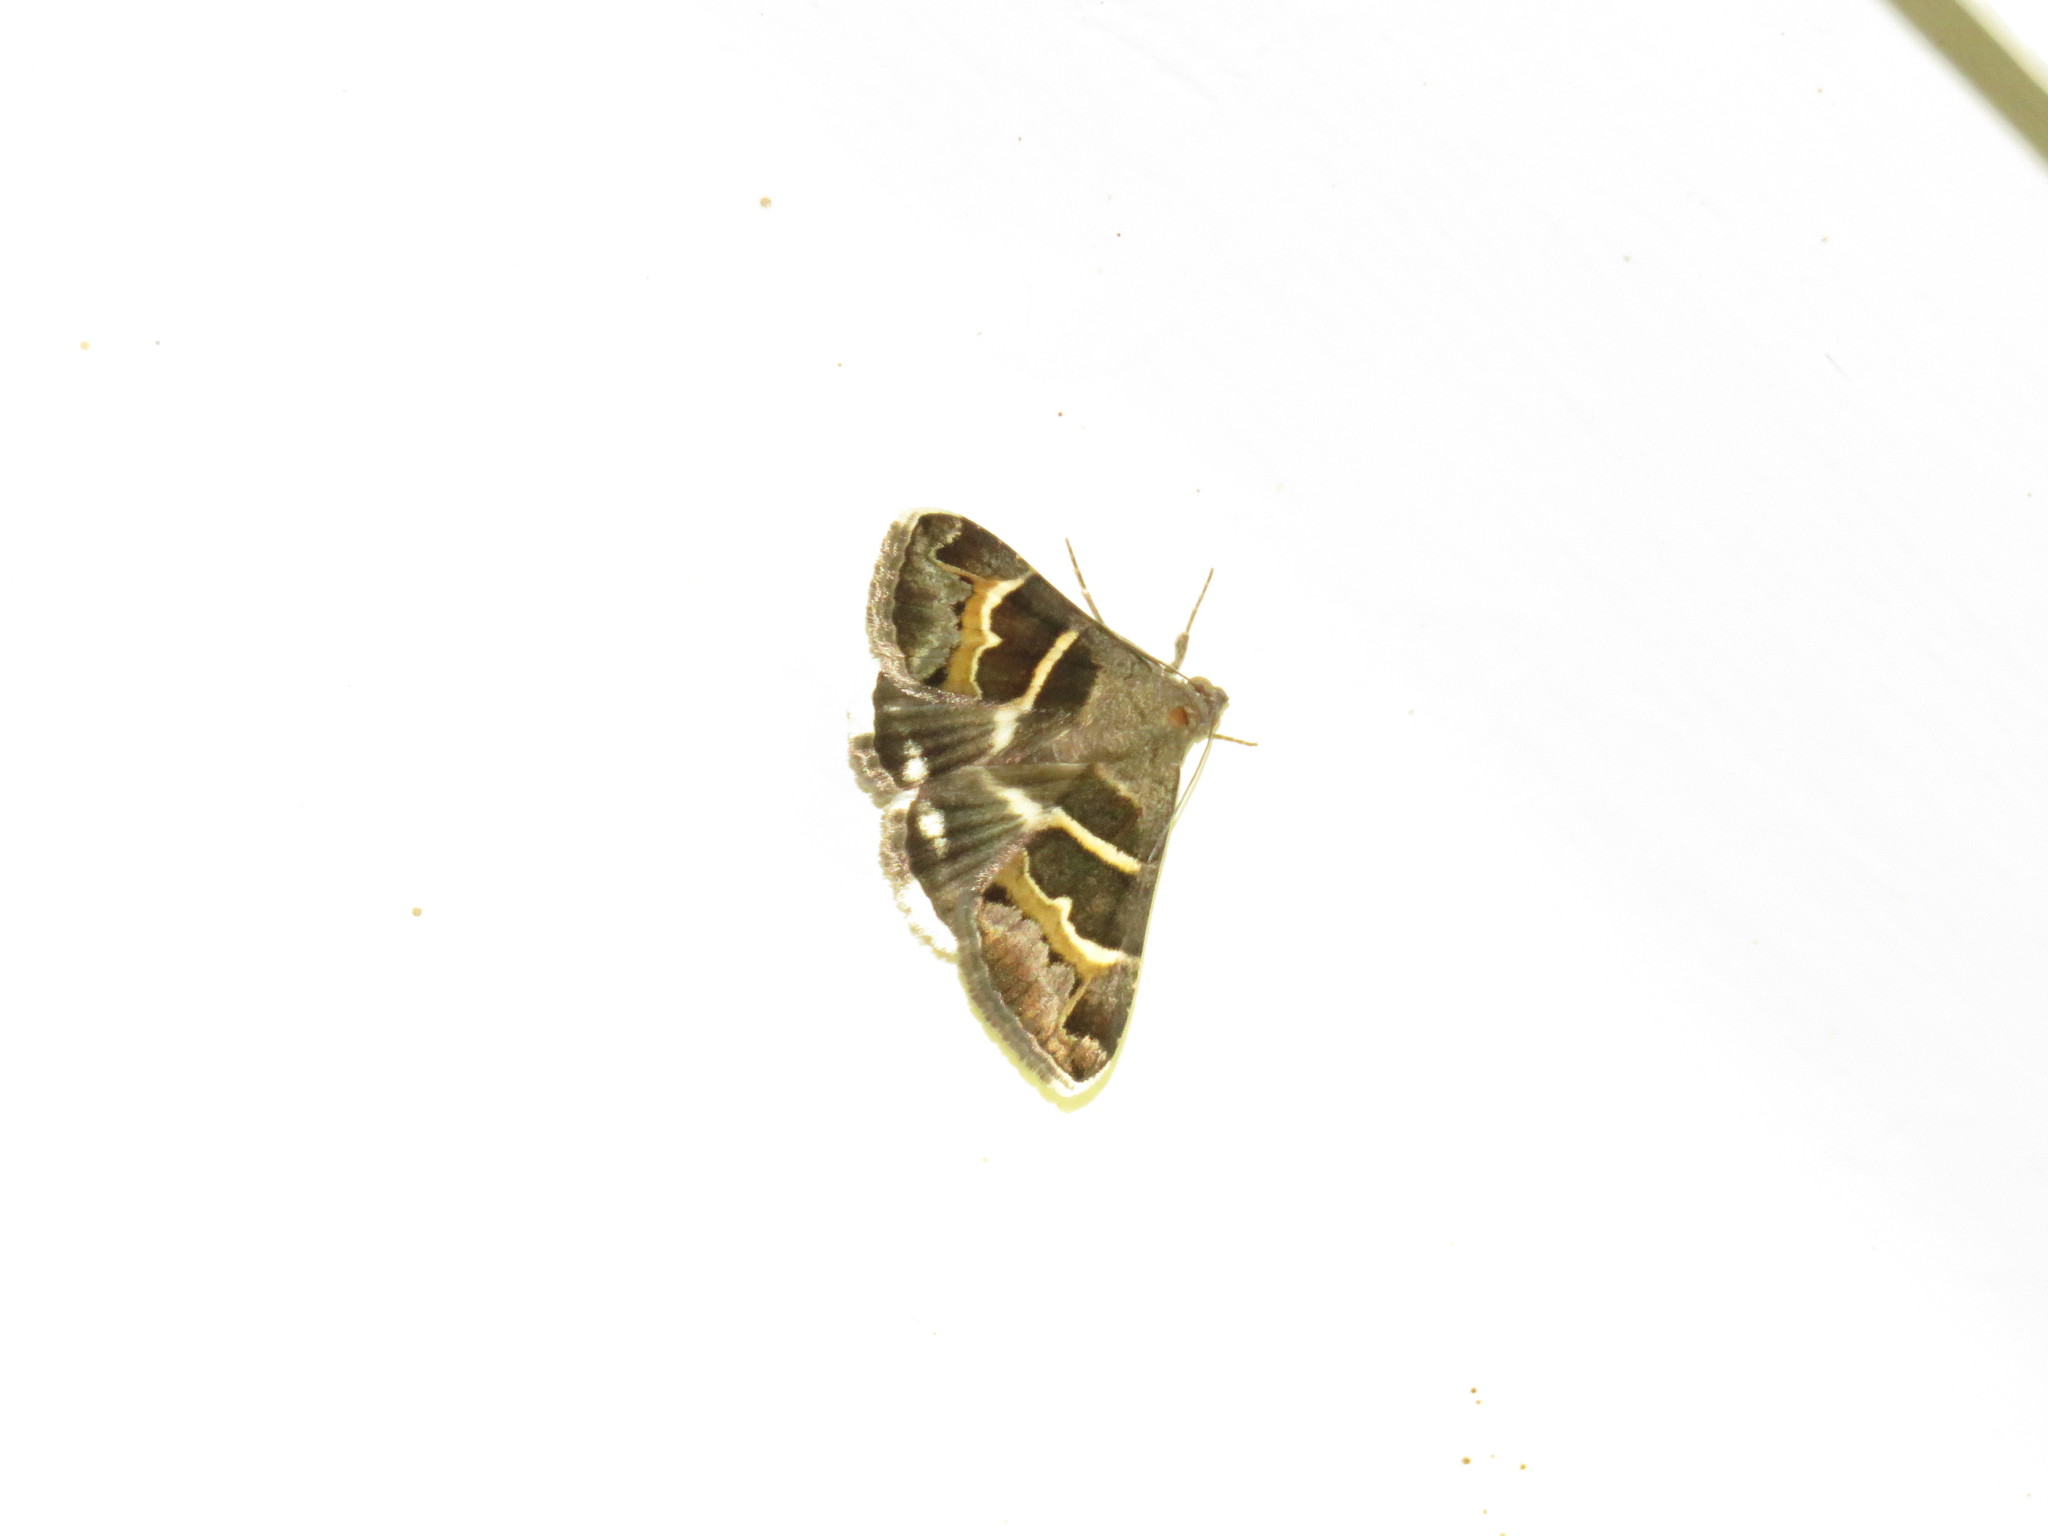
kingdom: Animalia
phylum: Arthropoda
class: Insecta
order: Lepidoptera
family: Erebidae
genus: Grammodes
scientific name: Grammodes stolida
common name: Geometrician
